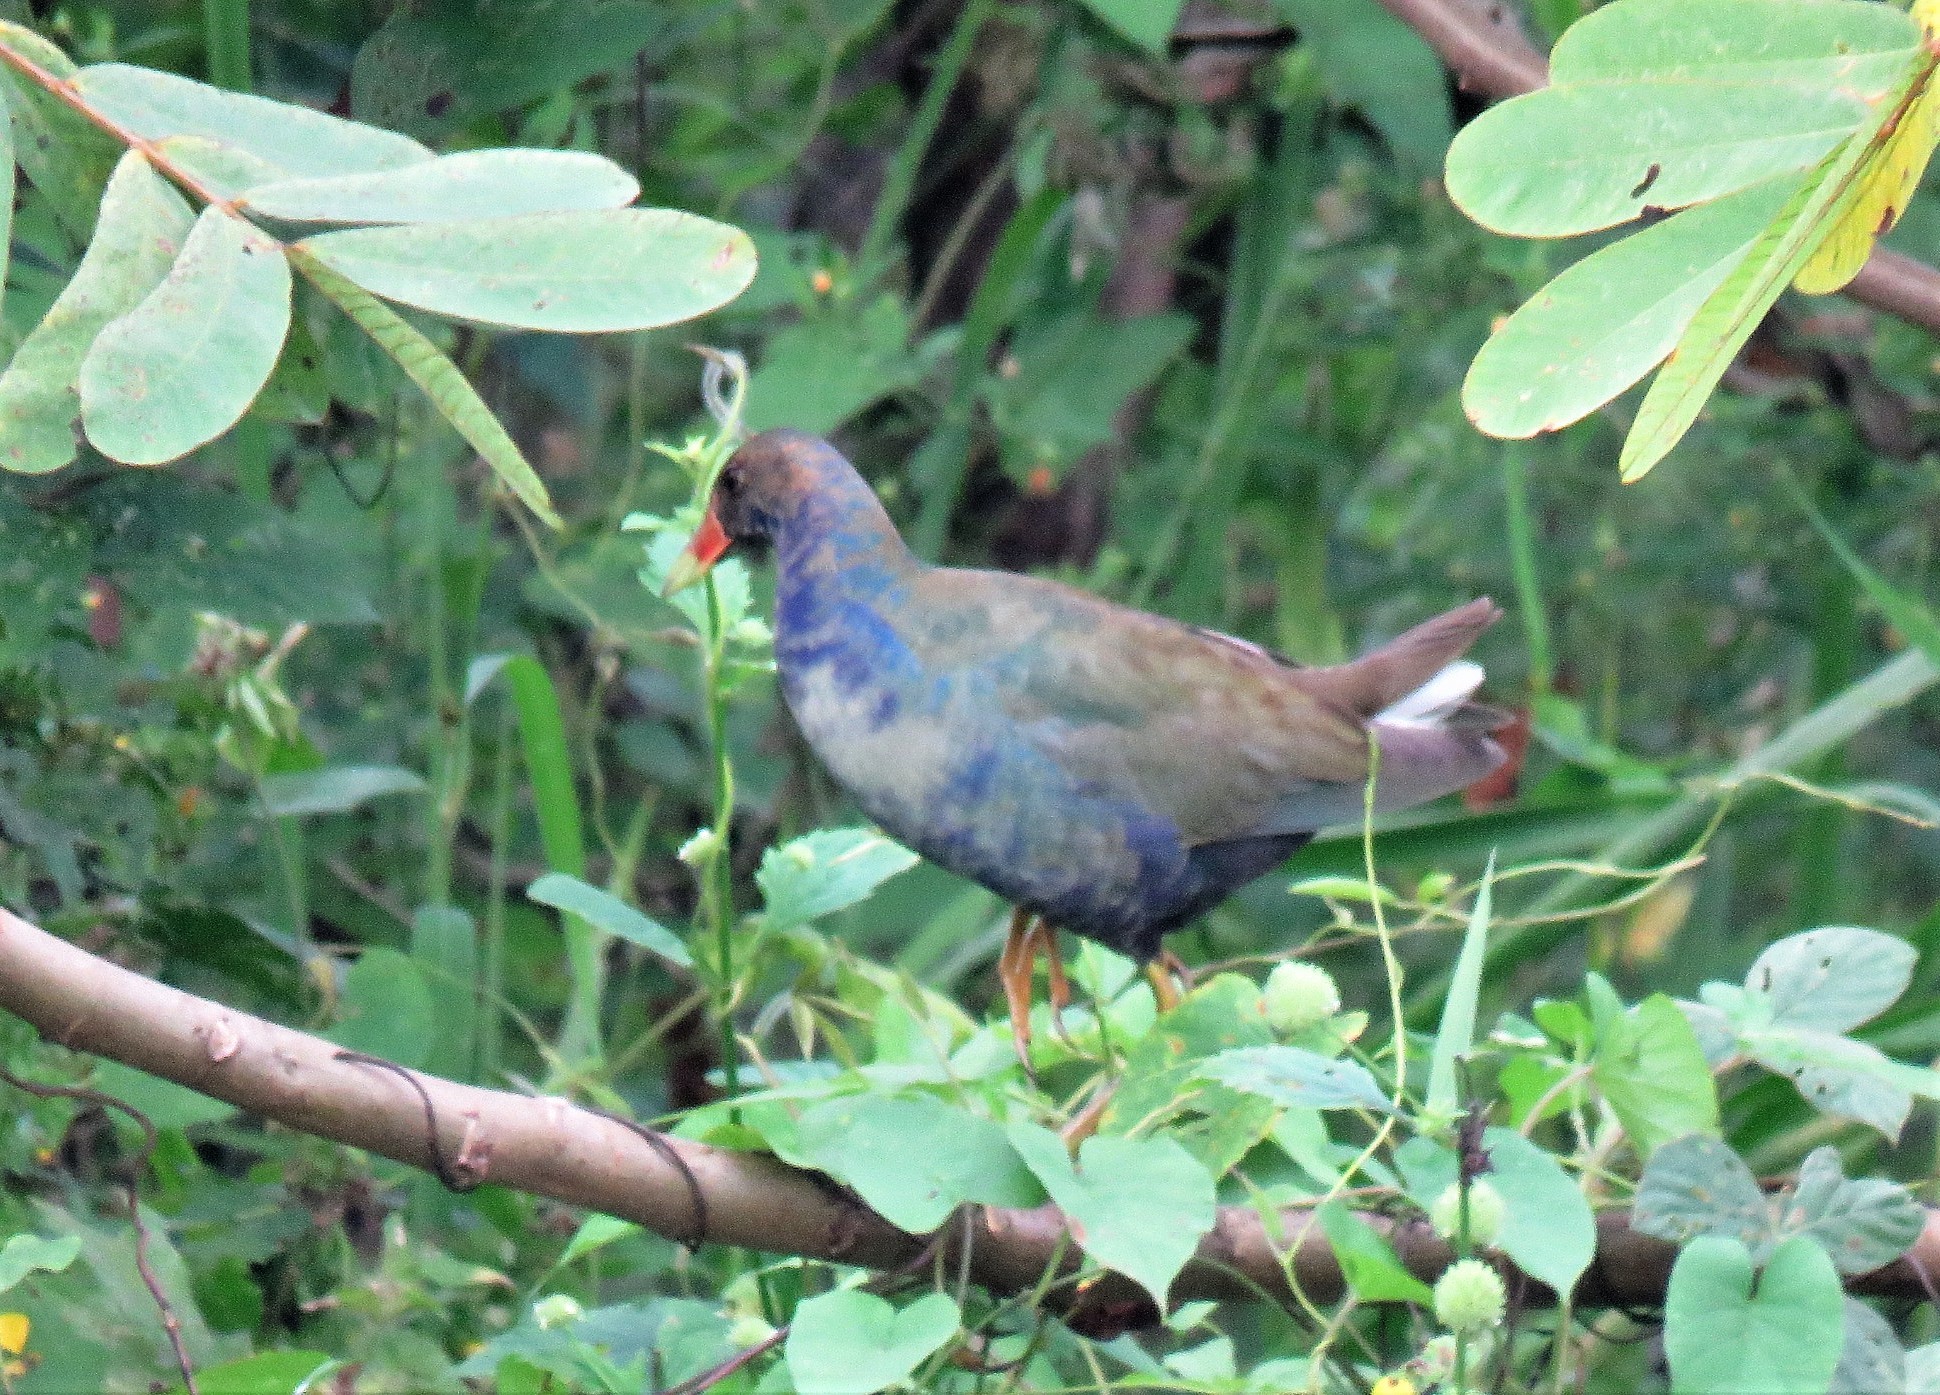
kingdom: Animalia
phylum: Chordata
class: Aves
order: Gruiformes
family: Rallidae
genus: Porphyrio
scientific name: Porphyrio martinica
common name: Purple gallinule
